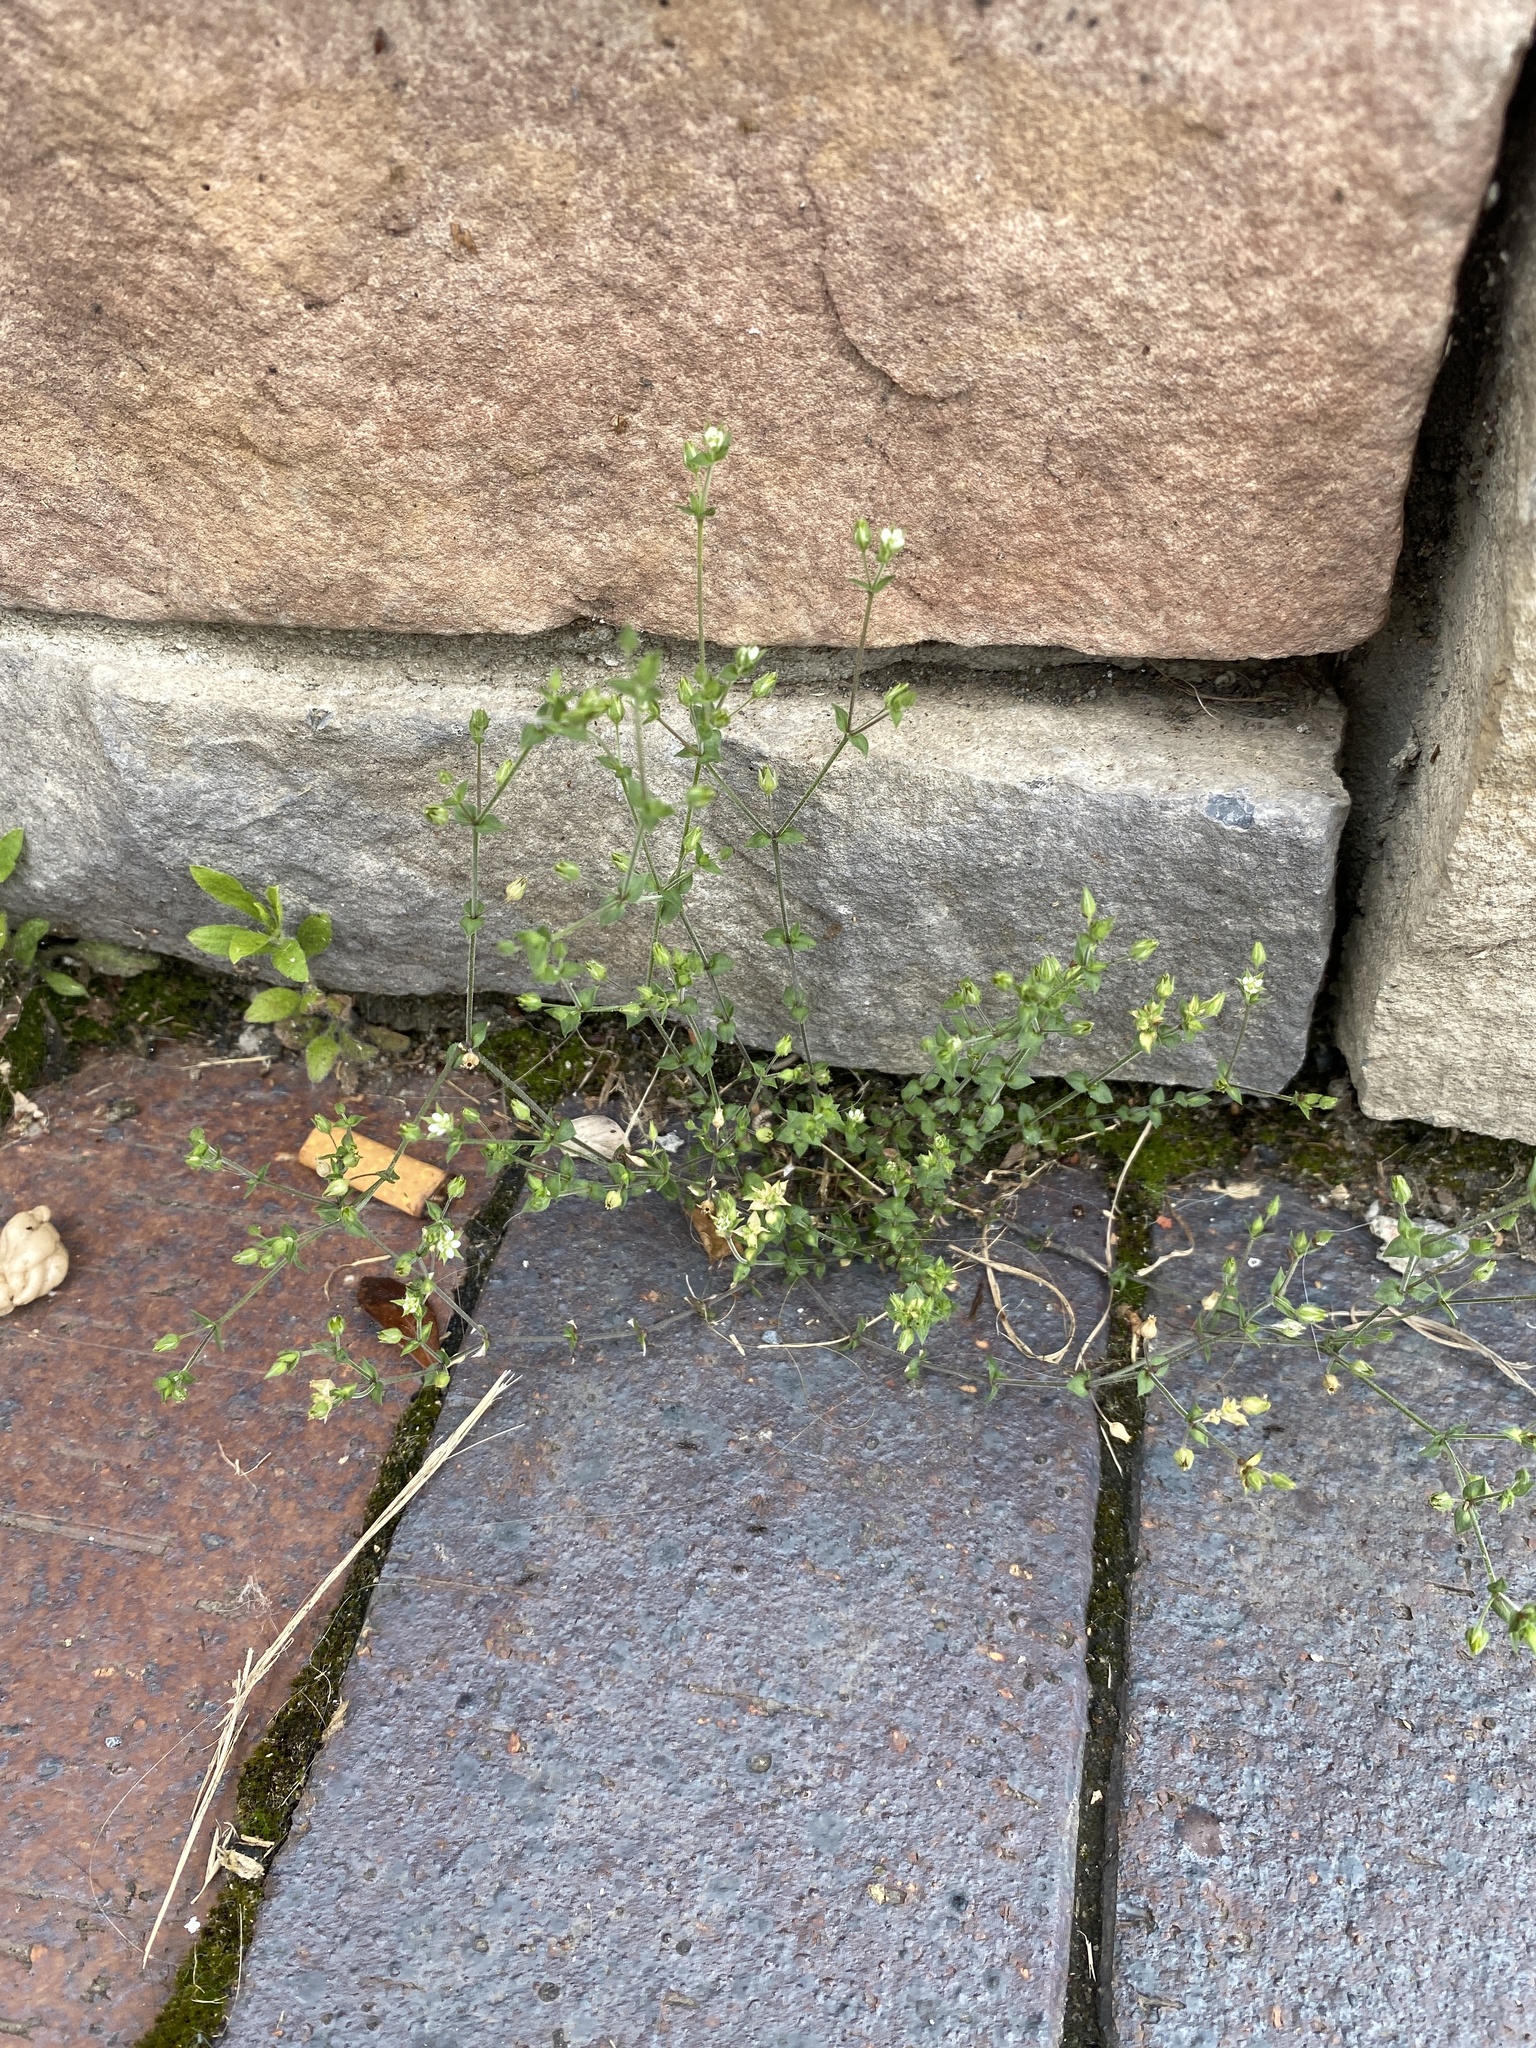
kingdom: Plantae
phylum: Tracheophyta
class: Magnoliopsida
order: Caryophyllales
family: Caryophyllaceae
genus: Arenaria
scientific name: Arenaria serpyllifolia
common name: Thyme-leaved sandwort
